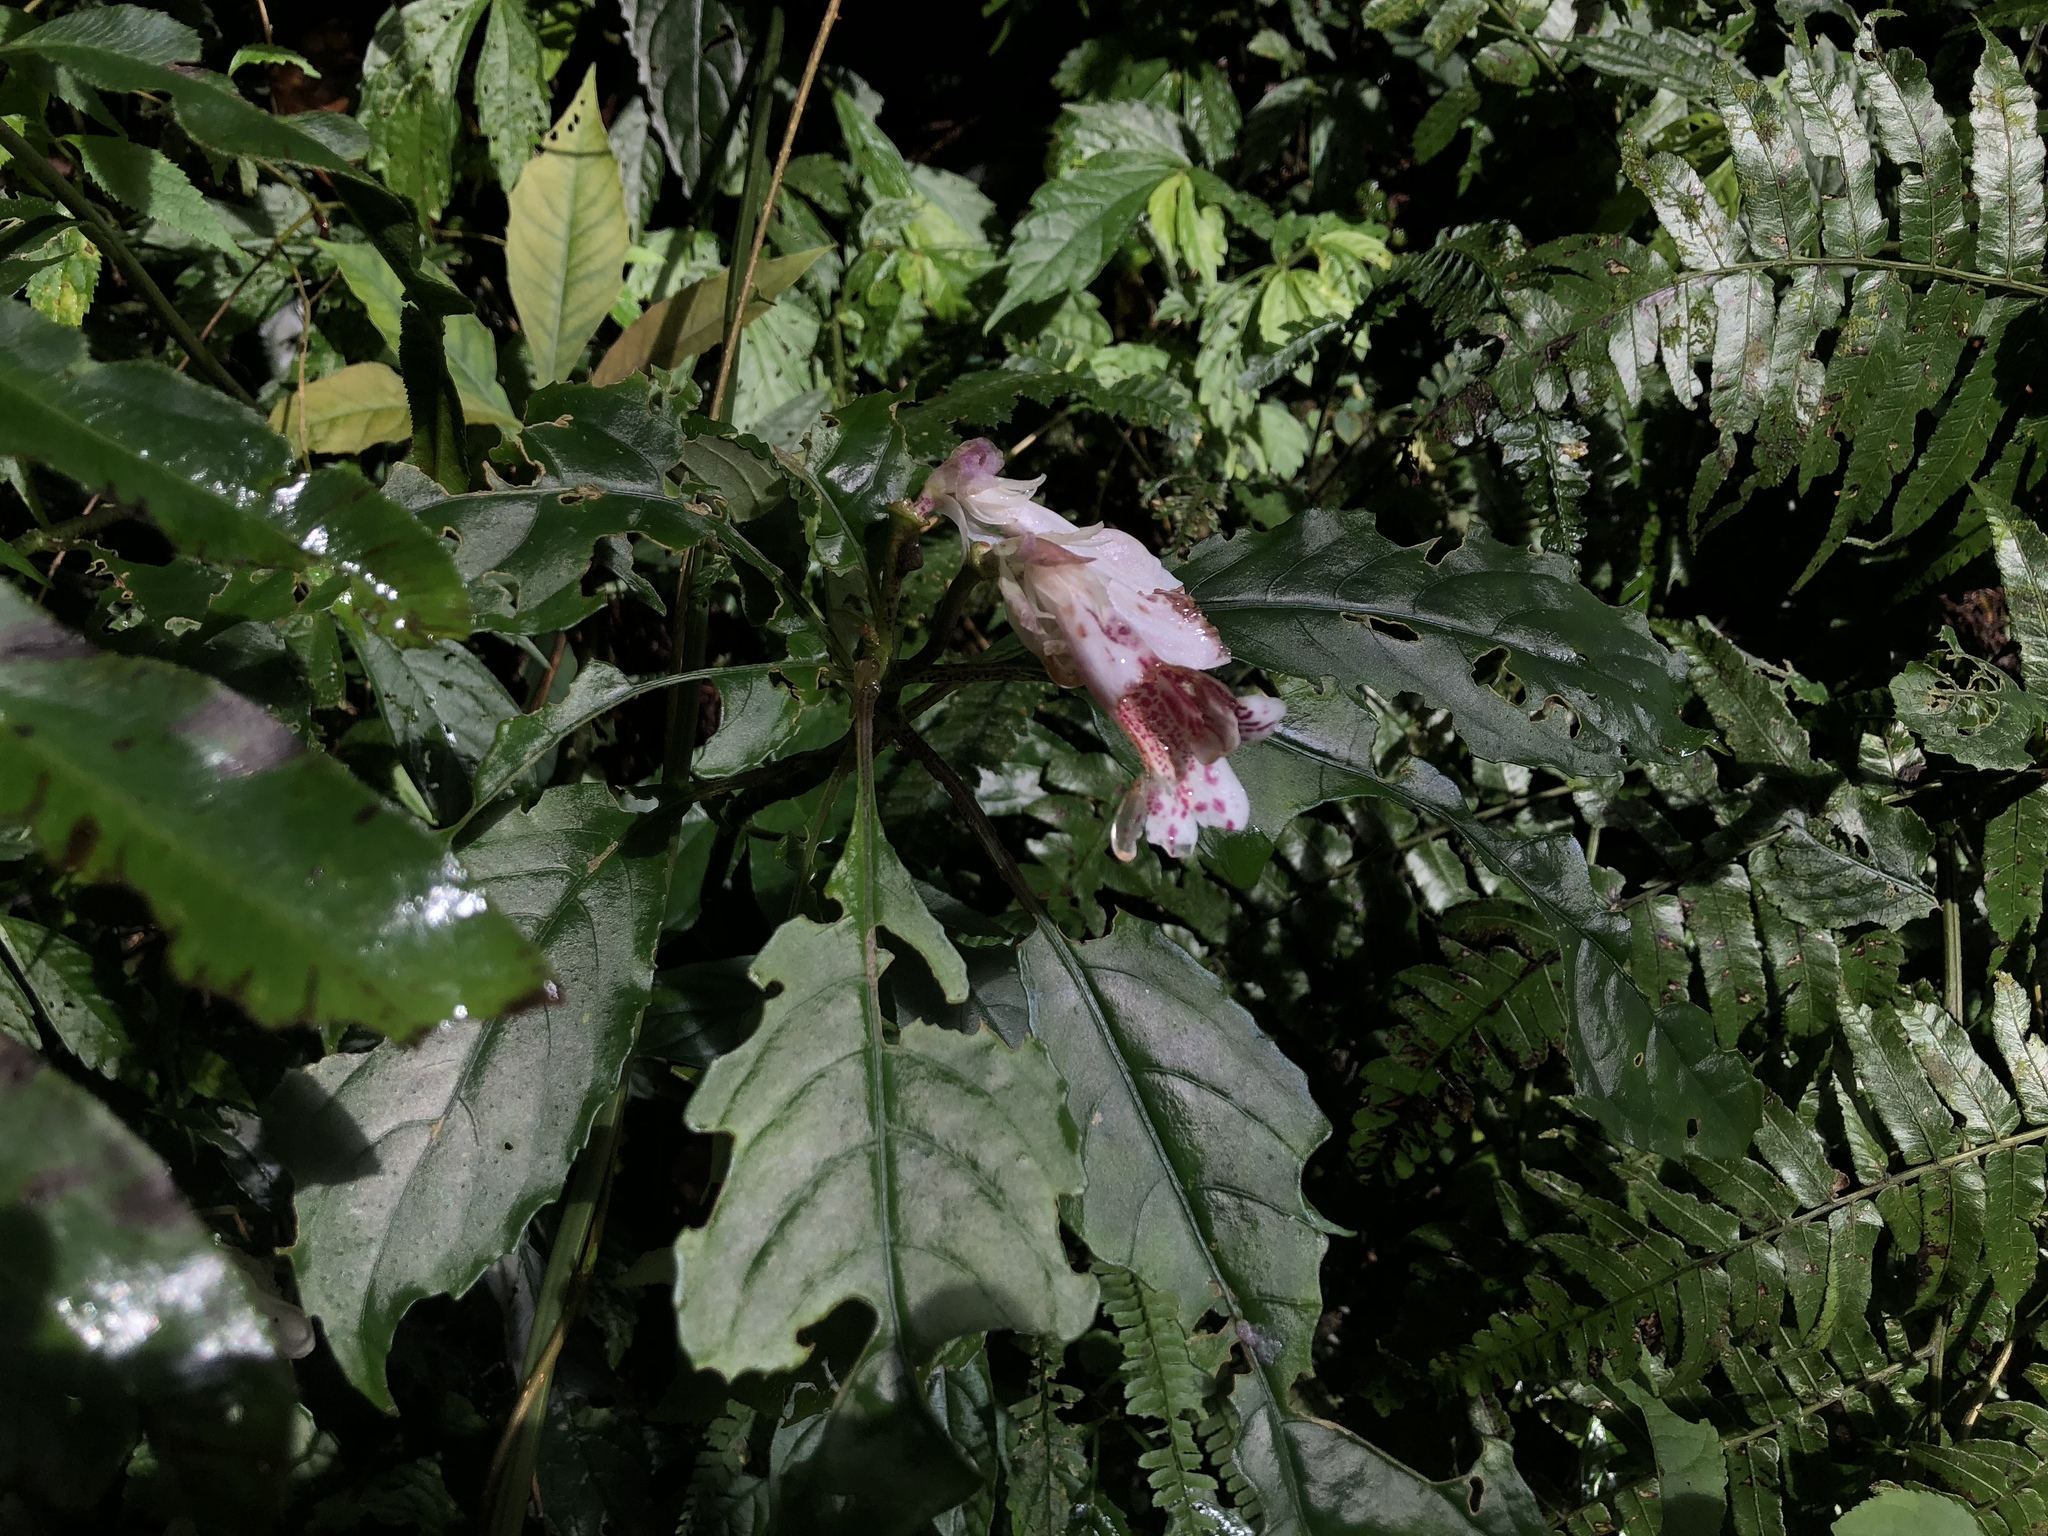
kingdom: Plantae
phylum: Tracheophyta
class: Magnoliopsida
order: Lamiales
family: Gesneriaceae
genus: Hemiboea
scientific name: Hemiboea bicornuta
